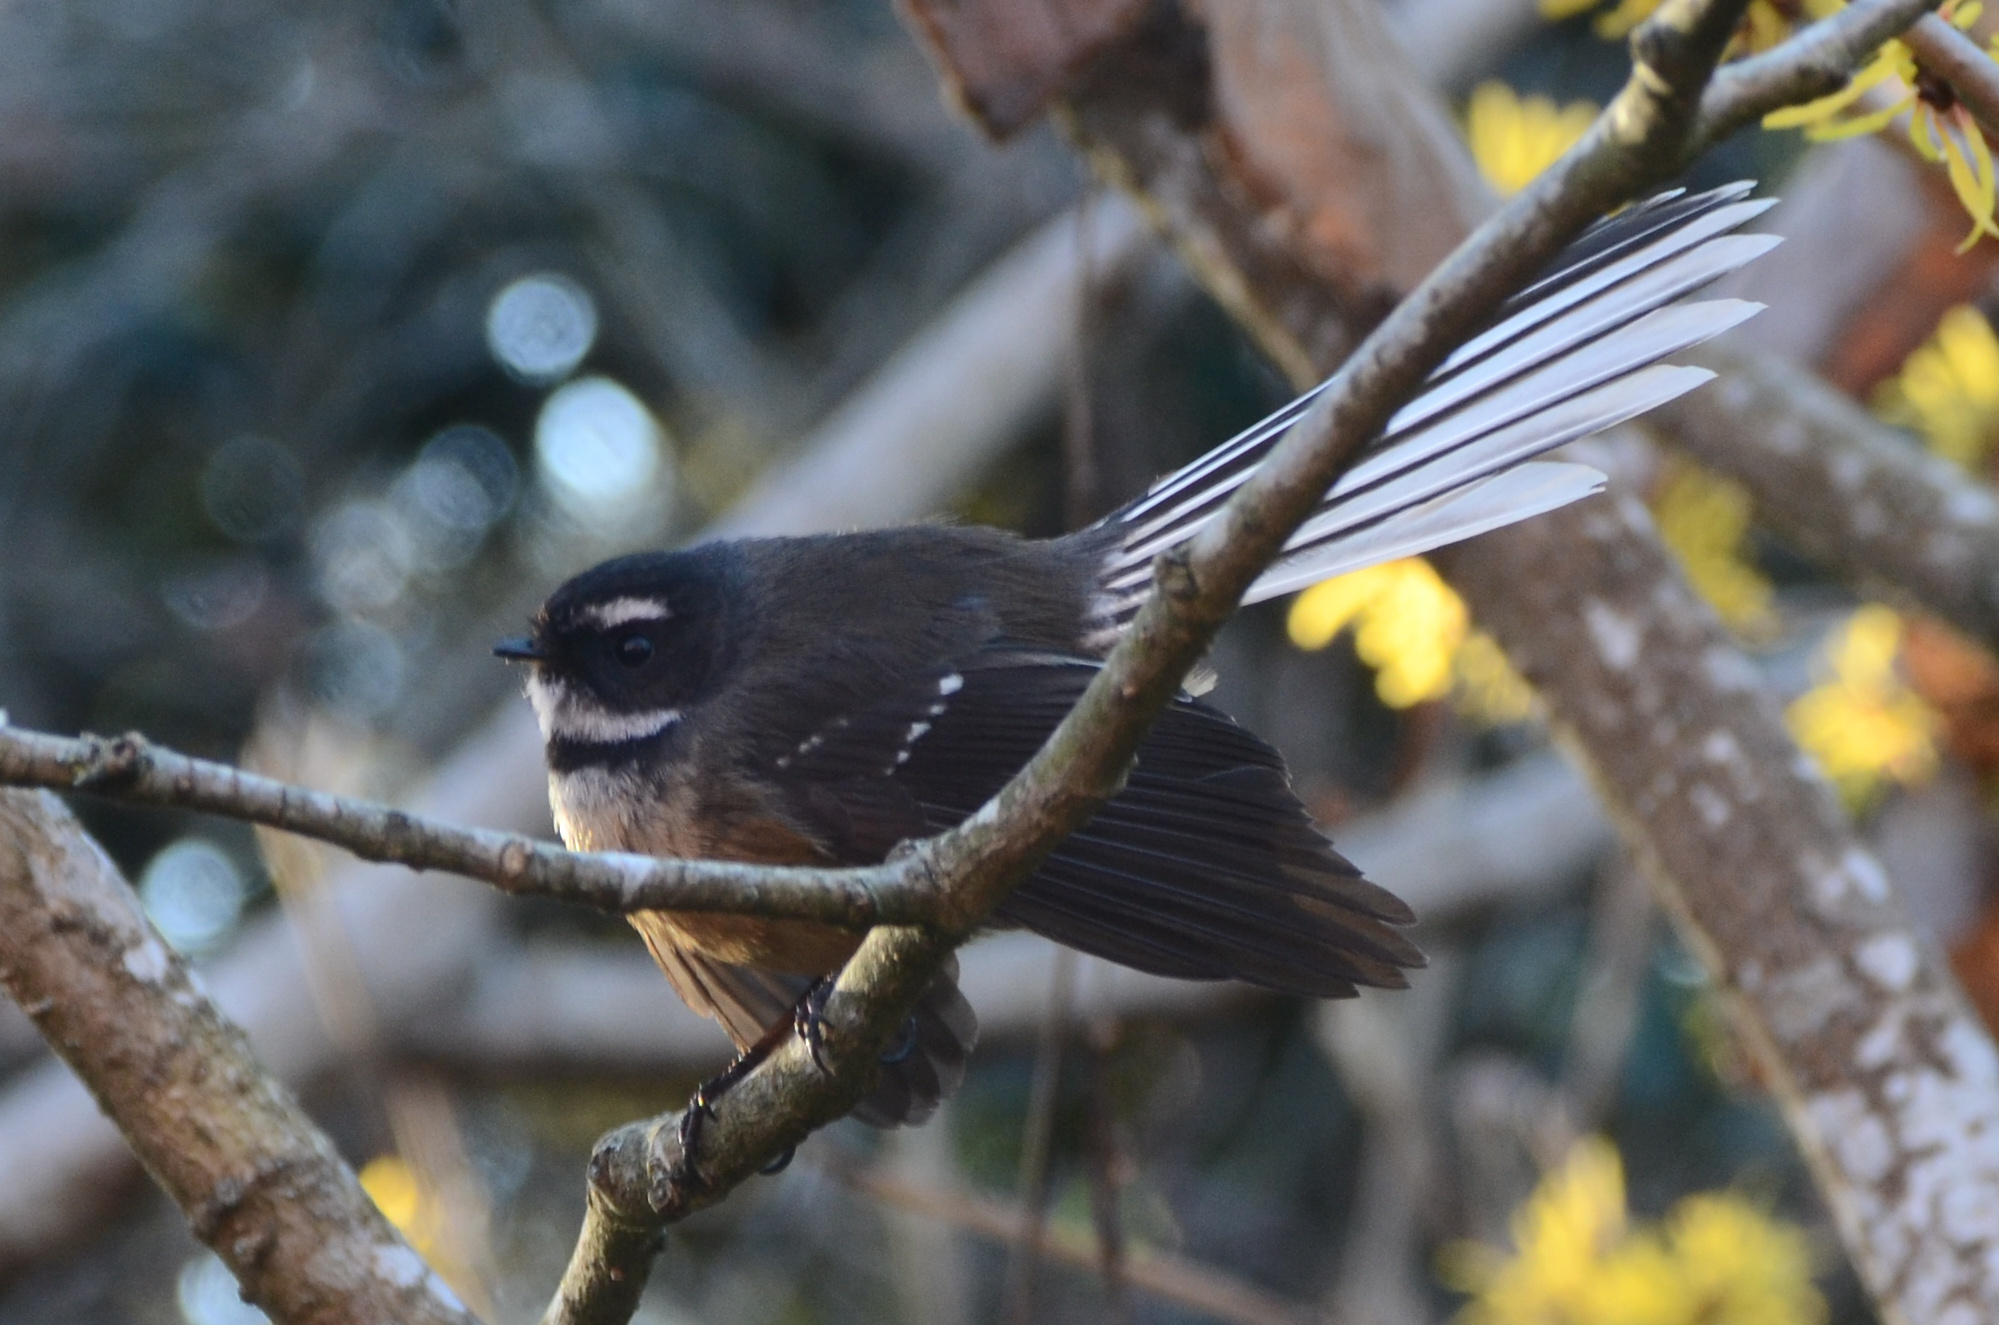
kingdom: Animalia
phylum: Chordata
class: Aves
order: Passeriformes
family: Rhipiduridae
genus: Rhipidura
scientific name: Rhipidura fuliginosa
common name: New zealand fantail
